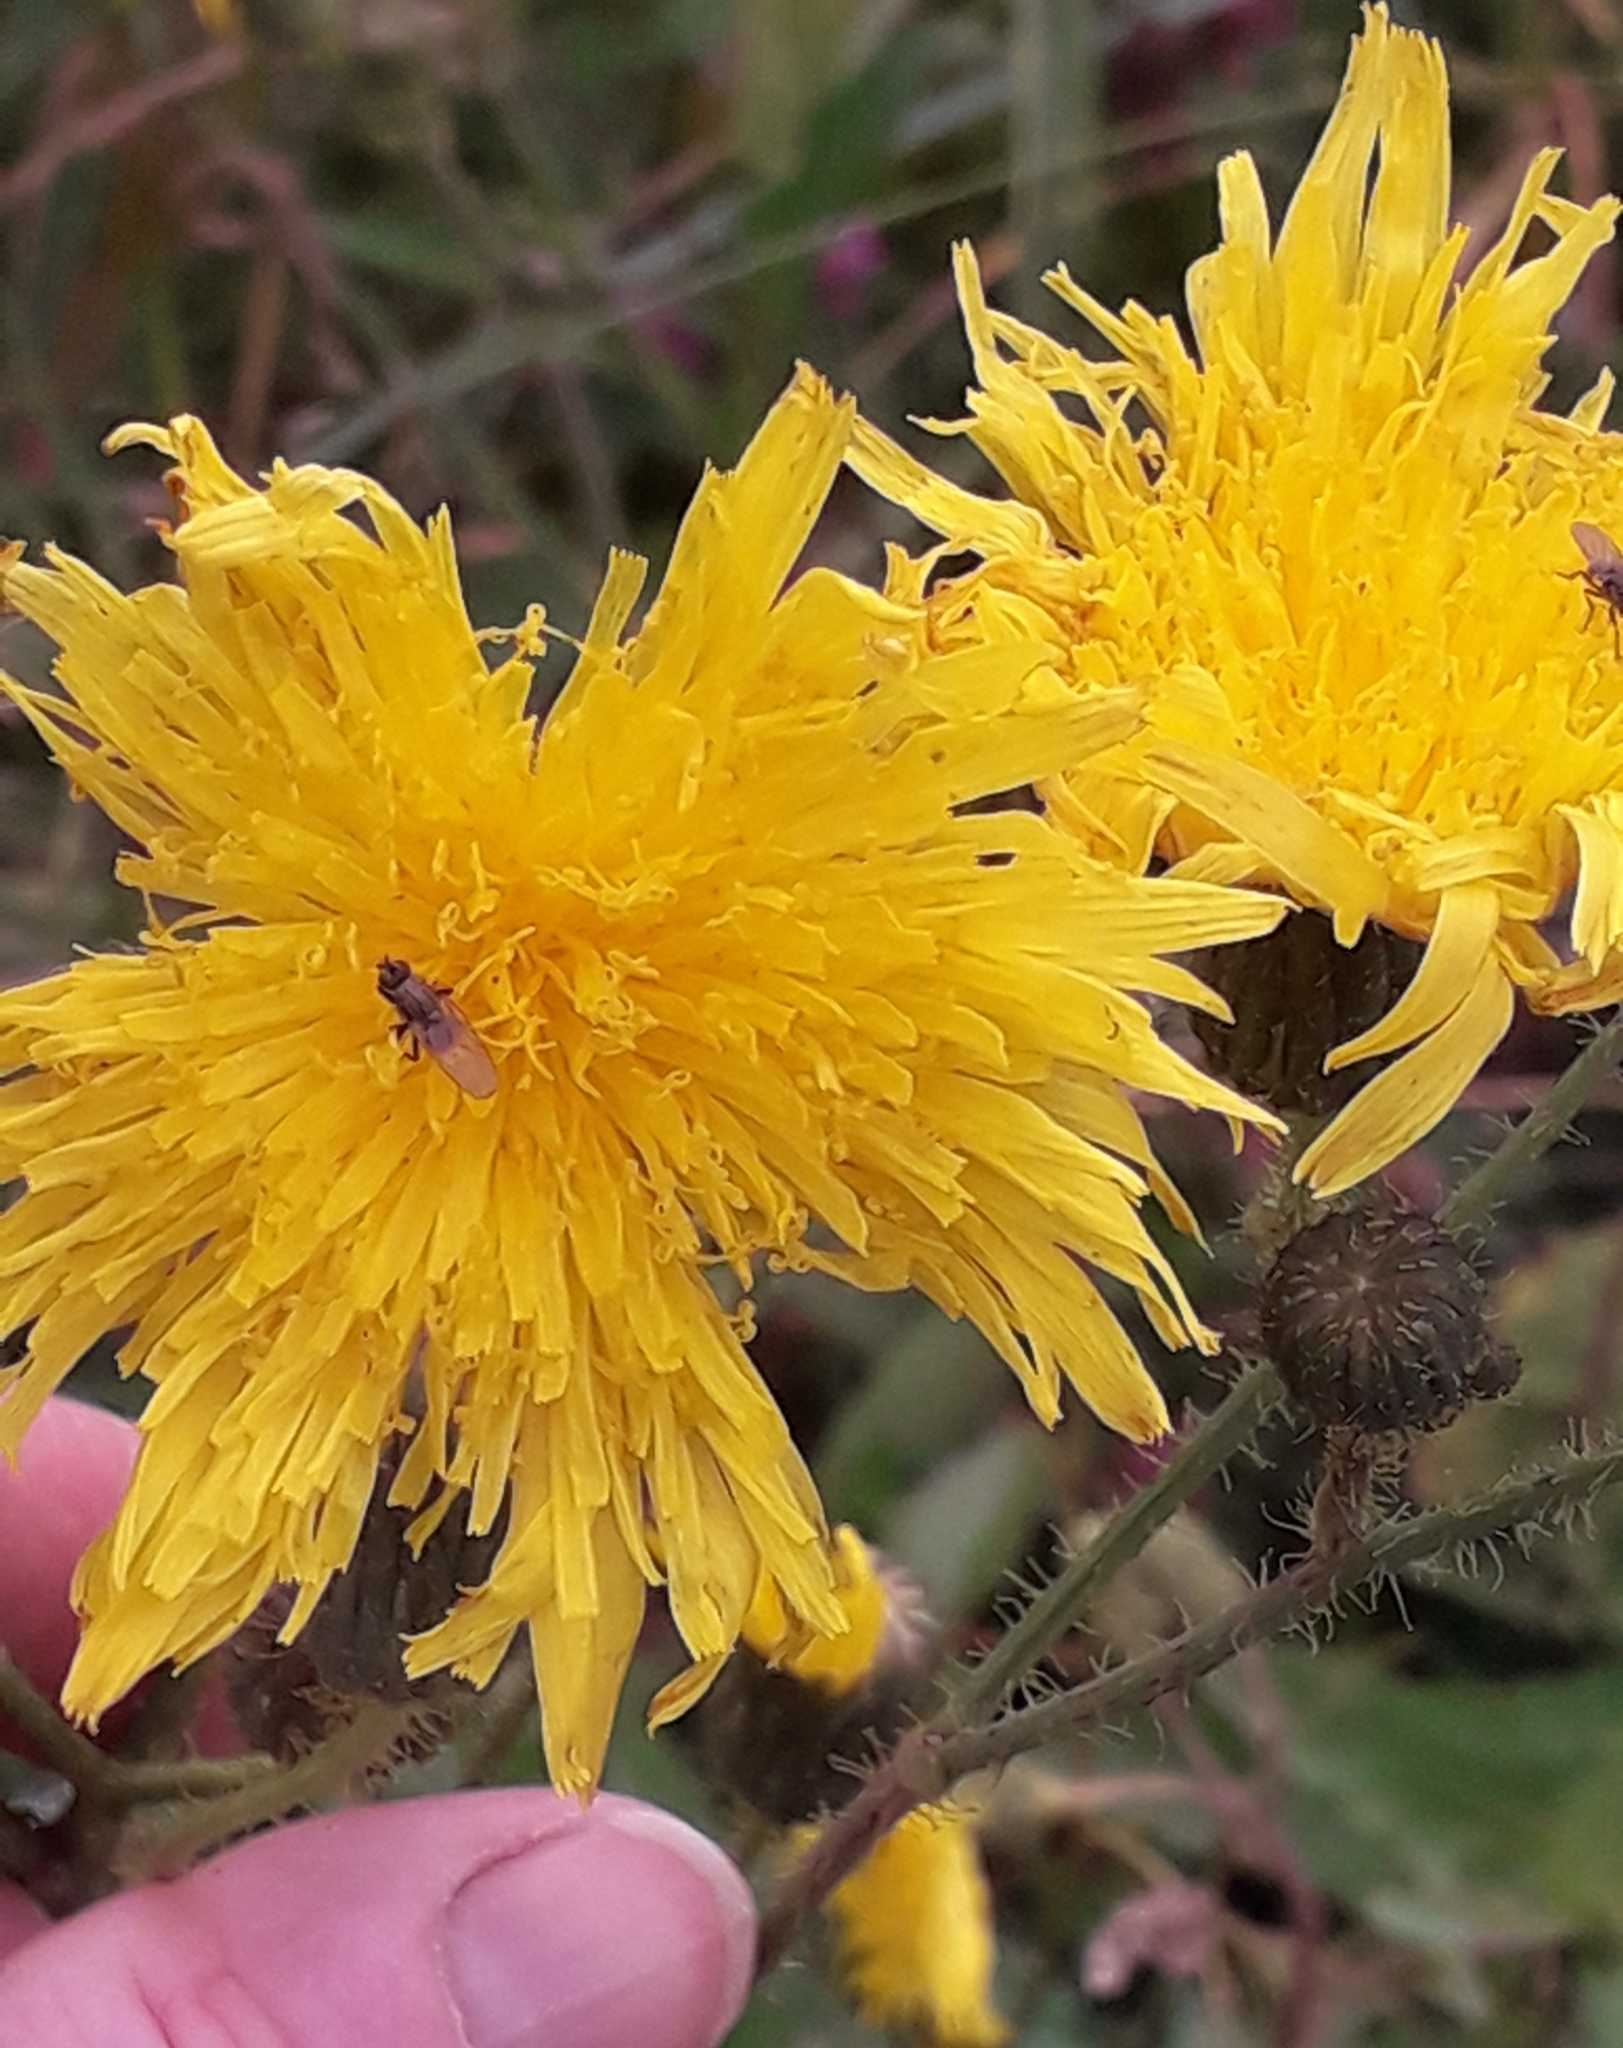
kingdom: Plantae
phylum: Tracheophyta
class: Magnoliopsida
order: Asterales
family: Asteraceae
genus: Sonchus
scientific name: Sonchus arvensis
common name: Perennial sow-thistle
